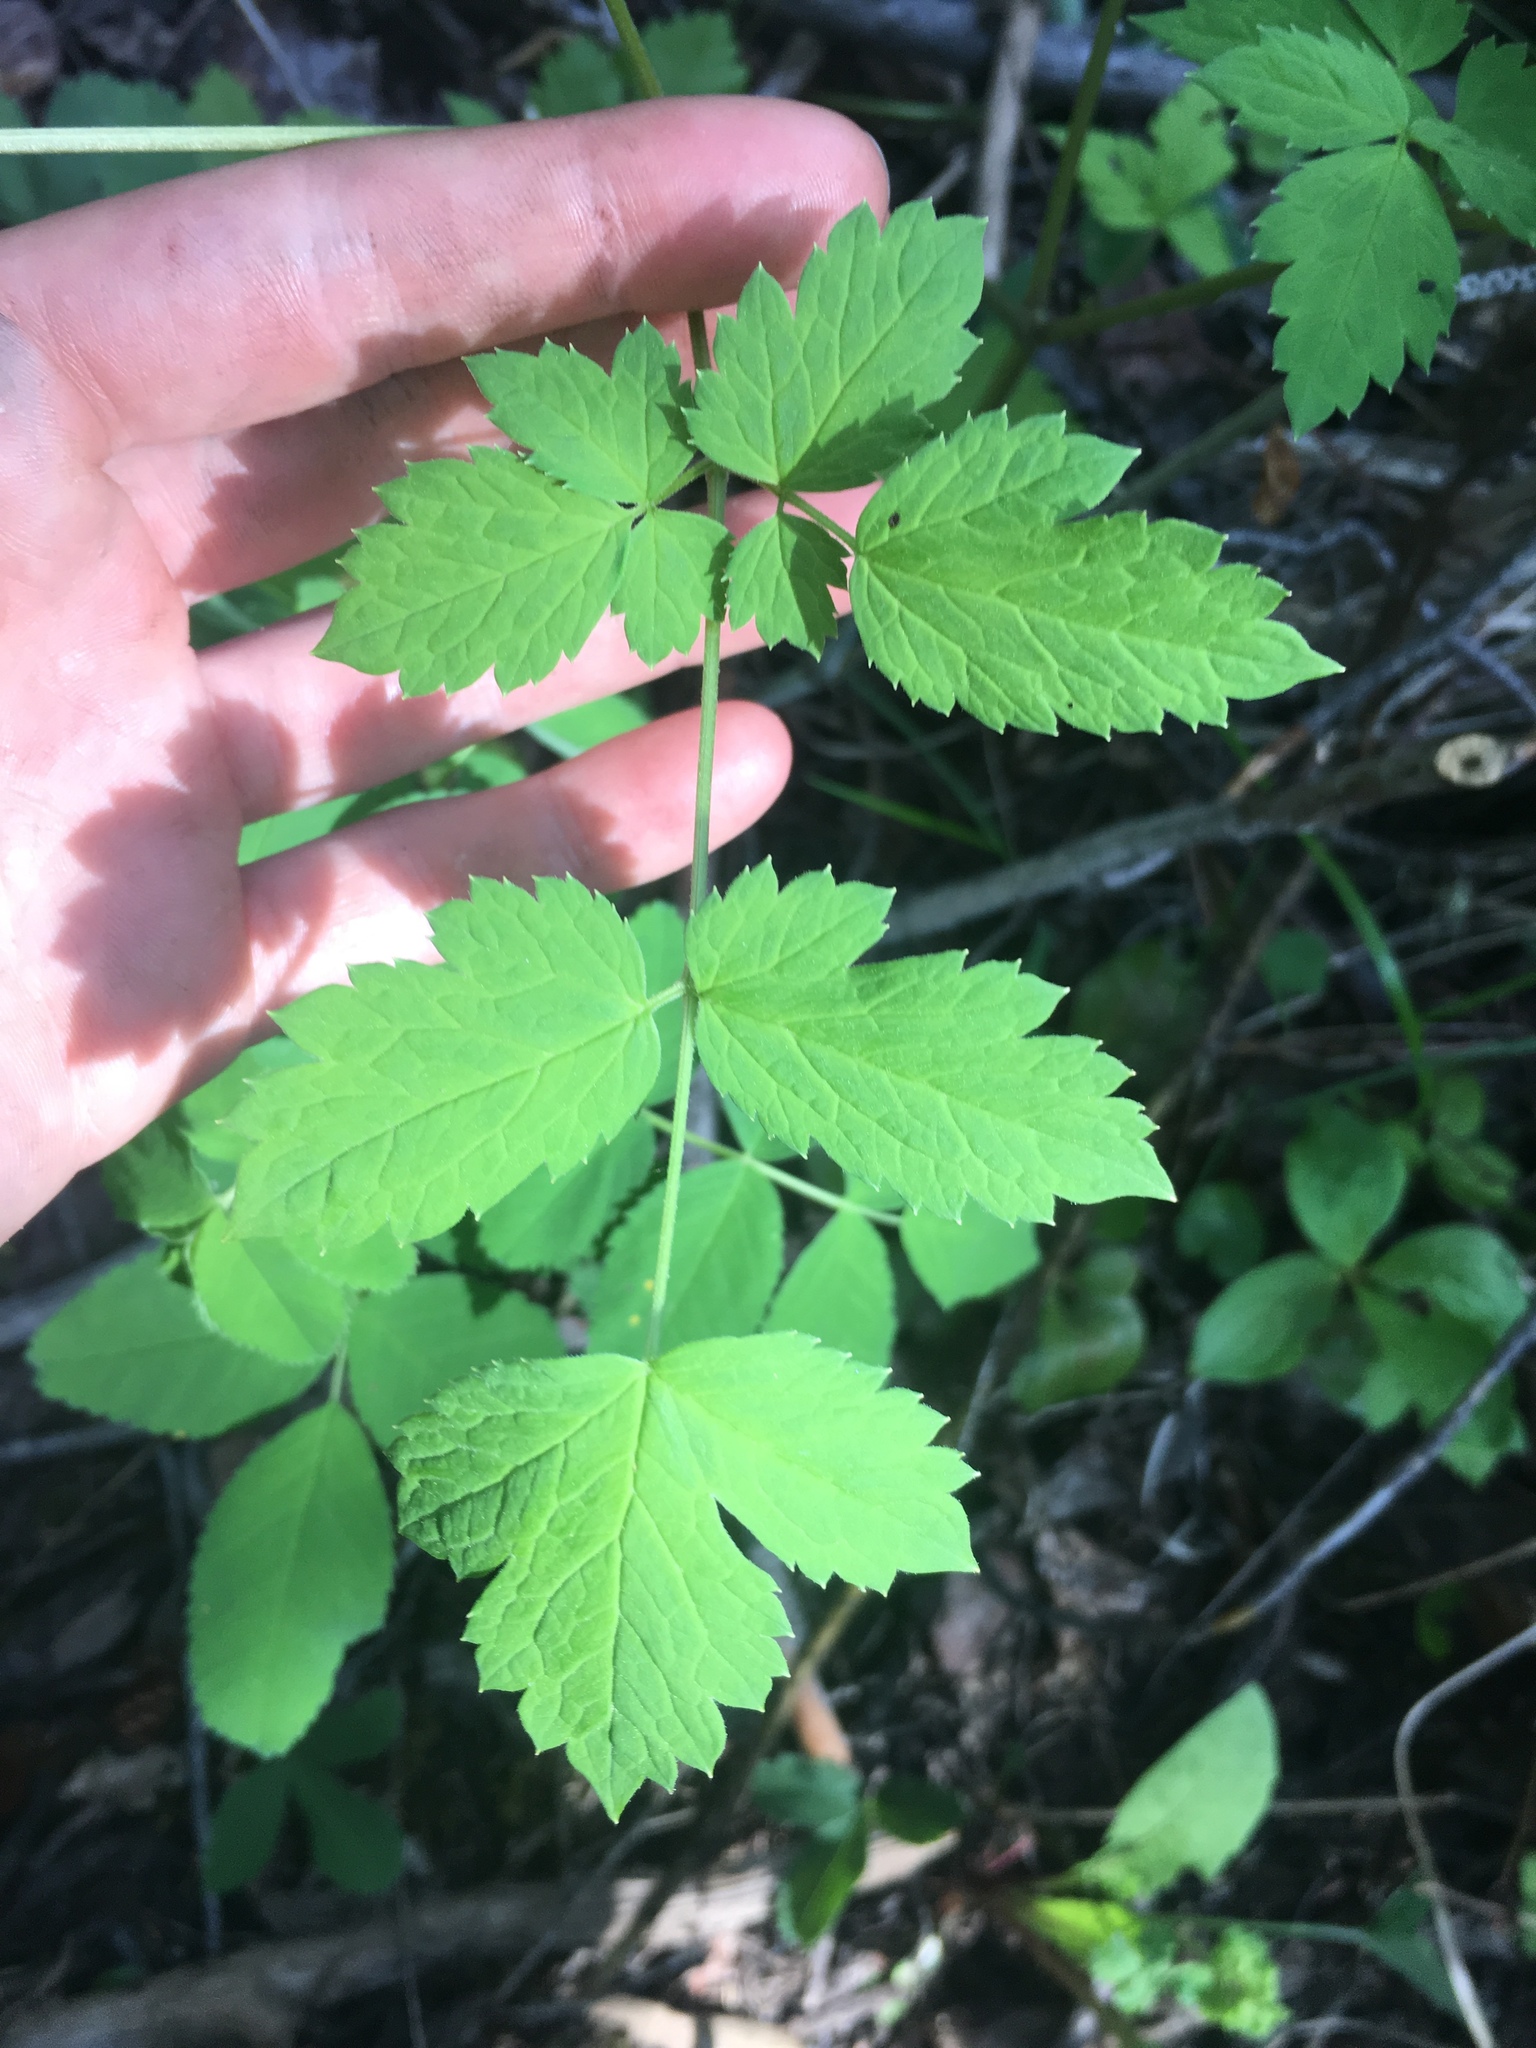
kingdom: Plantae
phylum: Tracheophyta
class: Magnoliopsida
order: Ranunculales
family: Ranunculaceae
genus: Actaea
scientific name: Actaea rubra
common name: Red baneberry
